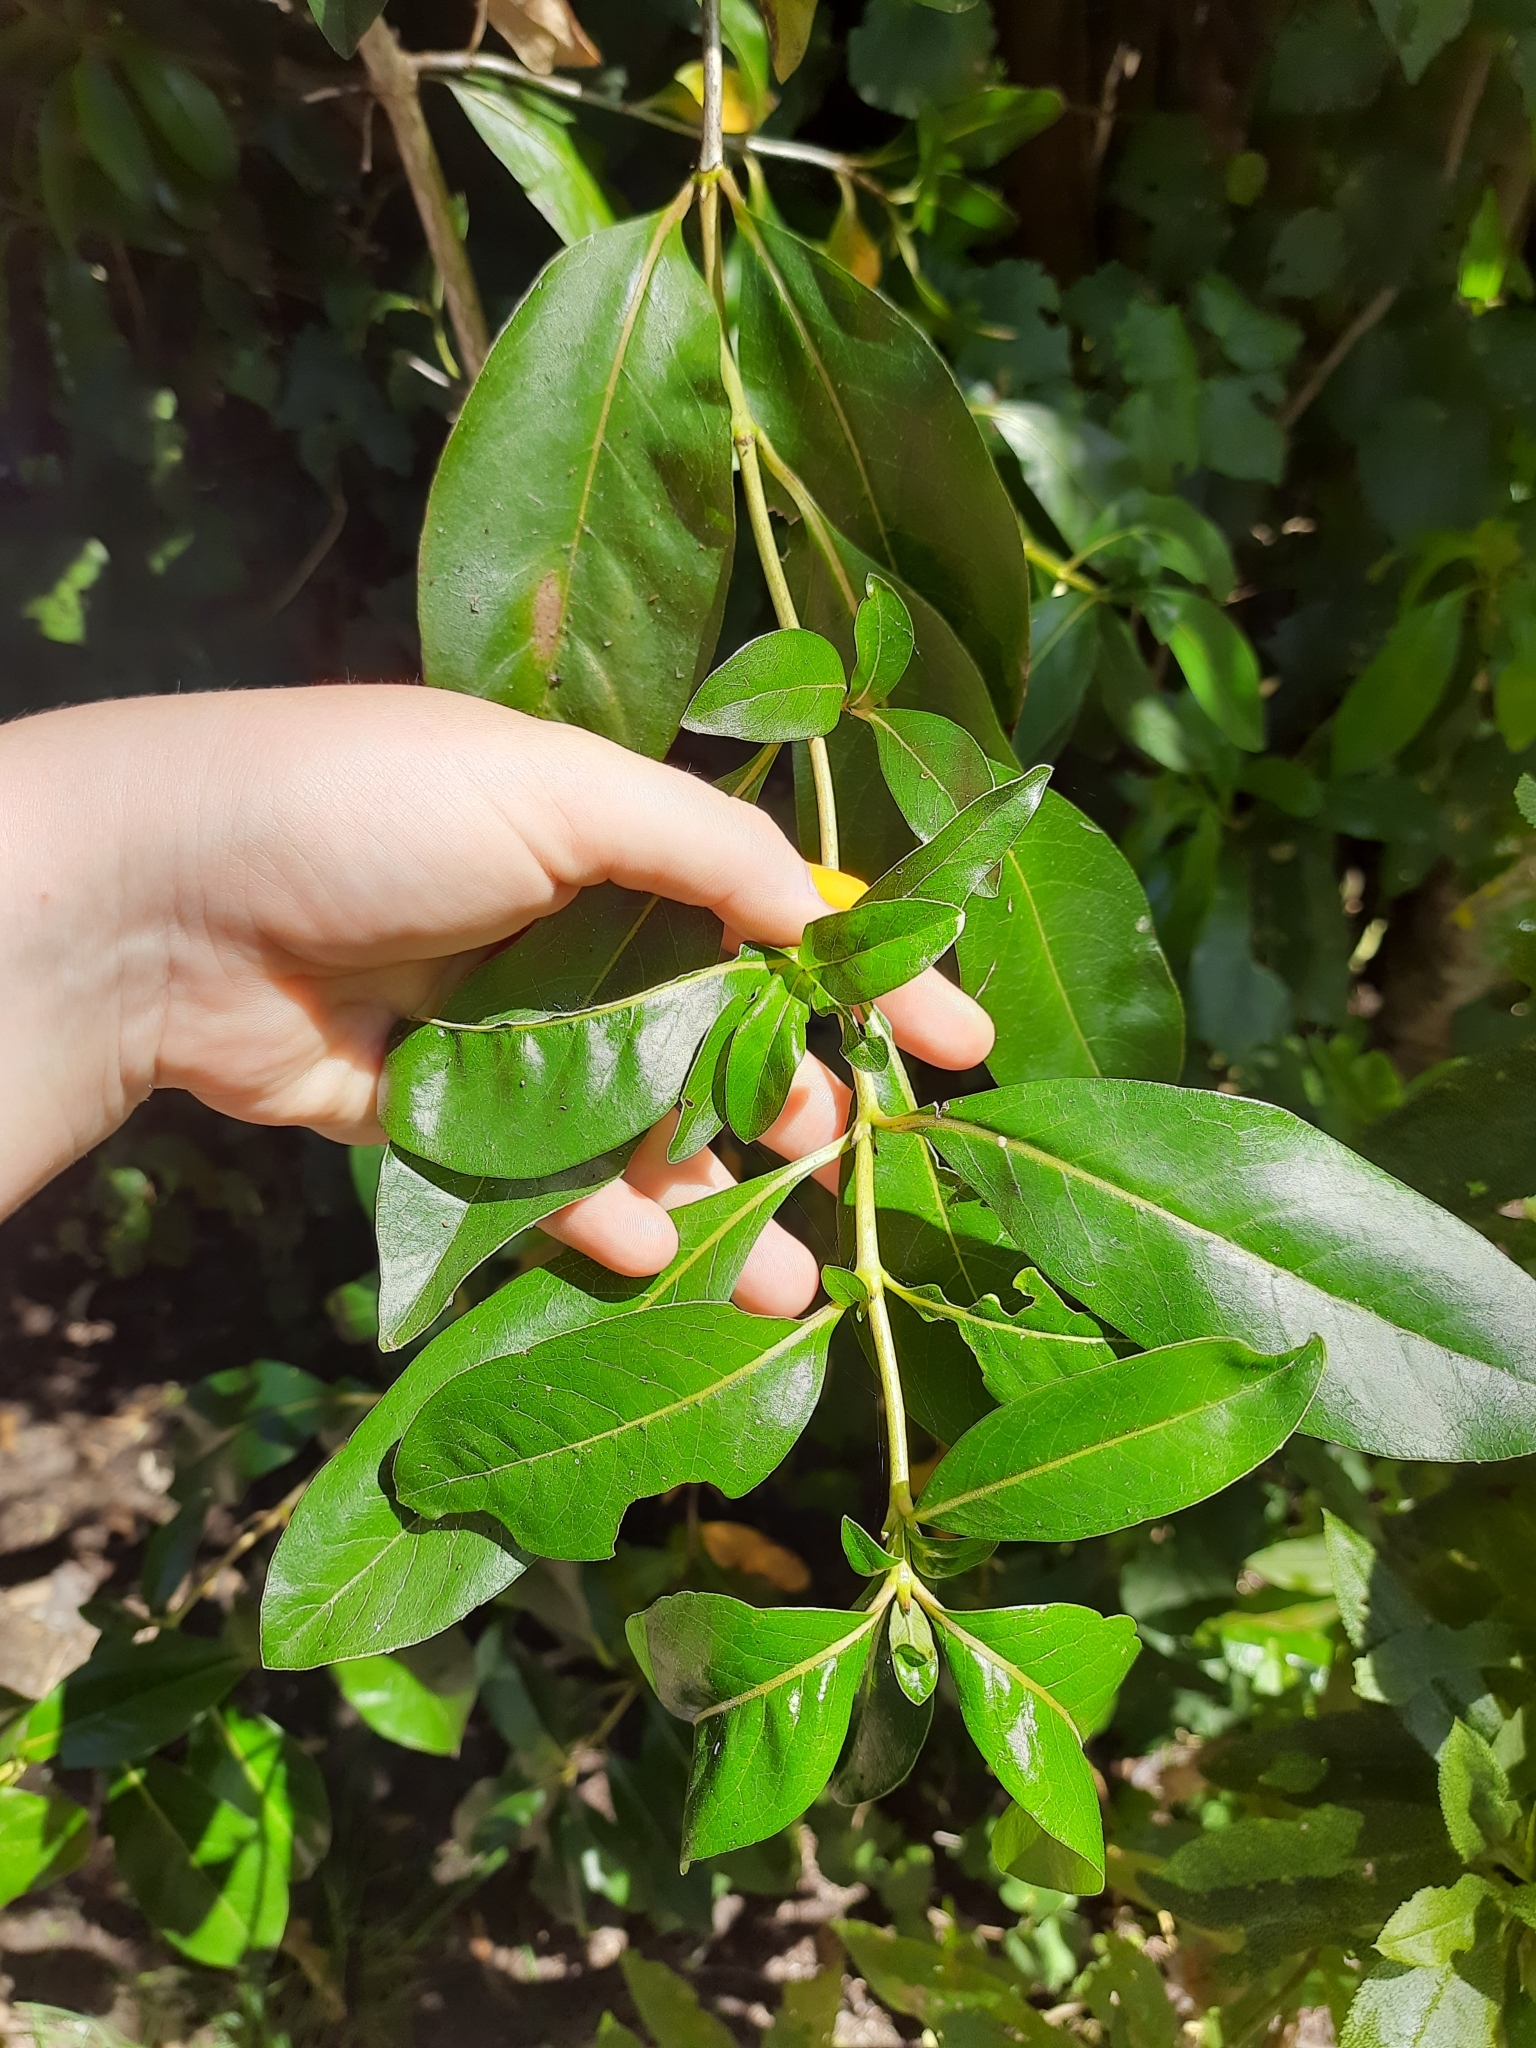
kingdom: Plantae
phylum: Tracheophyta
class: Magnoliopsida
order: Gentianales
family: Rubiaceae
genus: Coprosma
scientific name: Coprosma lucida
